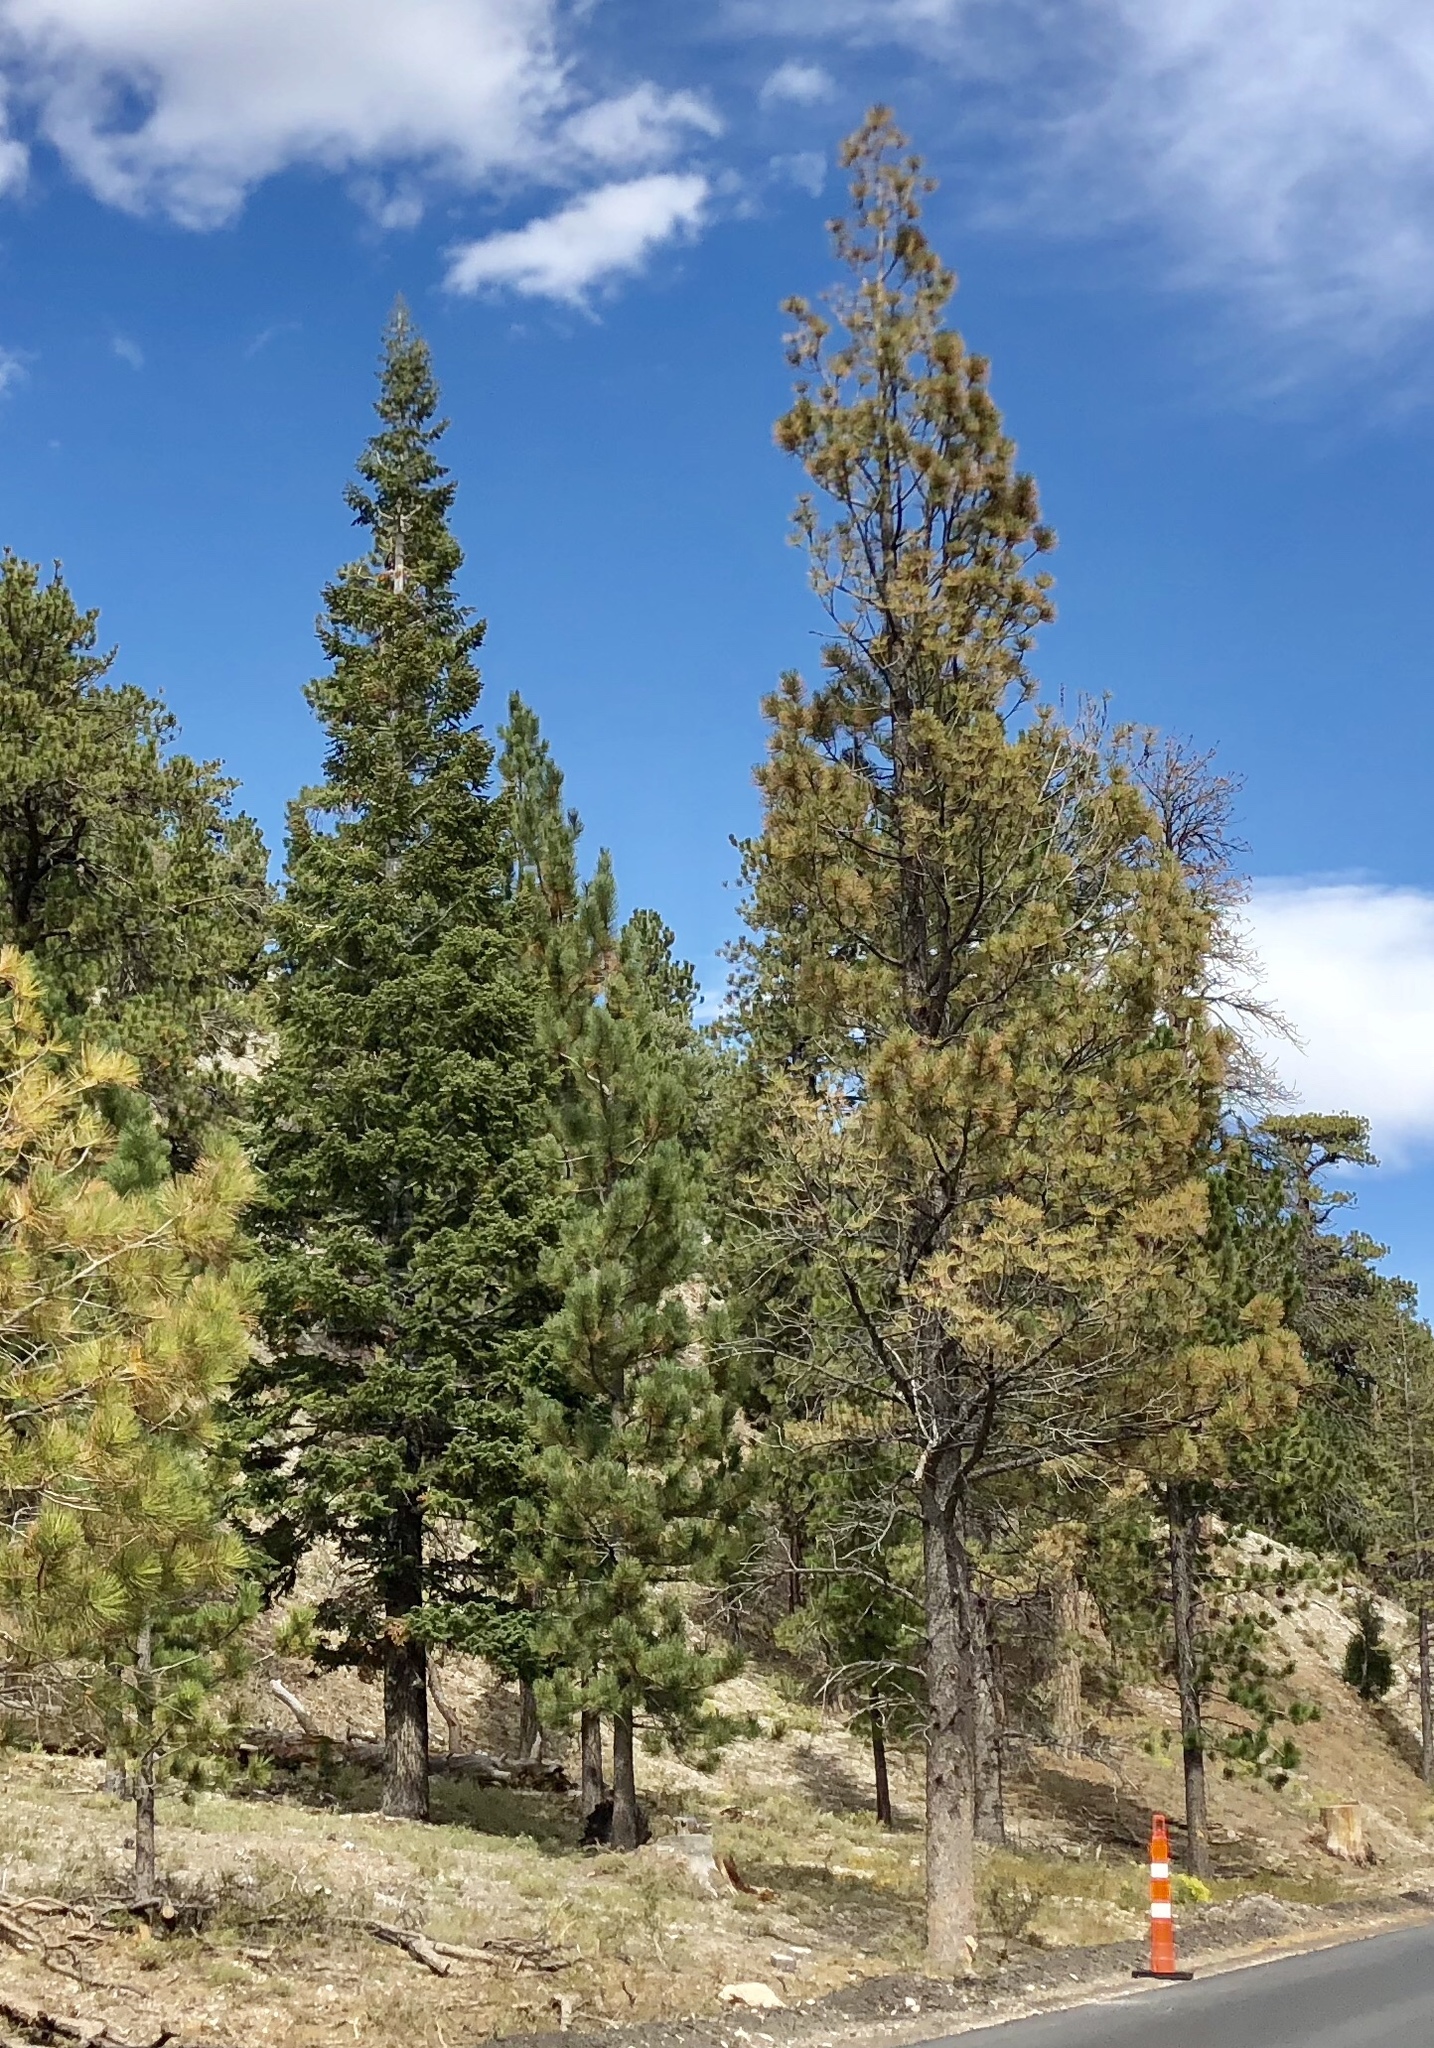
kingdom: Plantae
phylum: Tracheophyta
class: Pinopsida
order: Pinales
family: Pinaceae
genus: Pinus
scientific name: Pinus ponderosa
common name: Western yellow-pine
